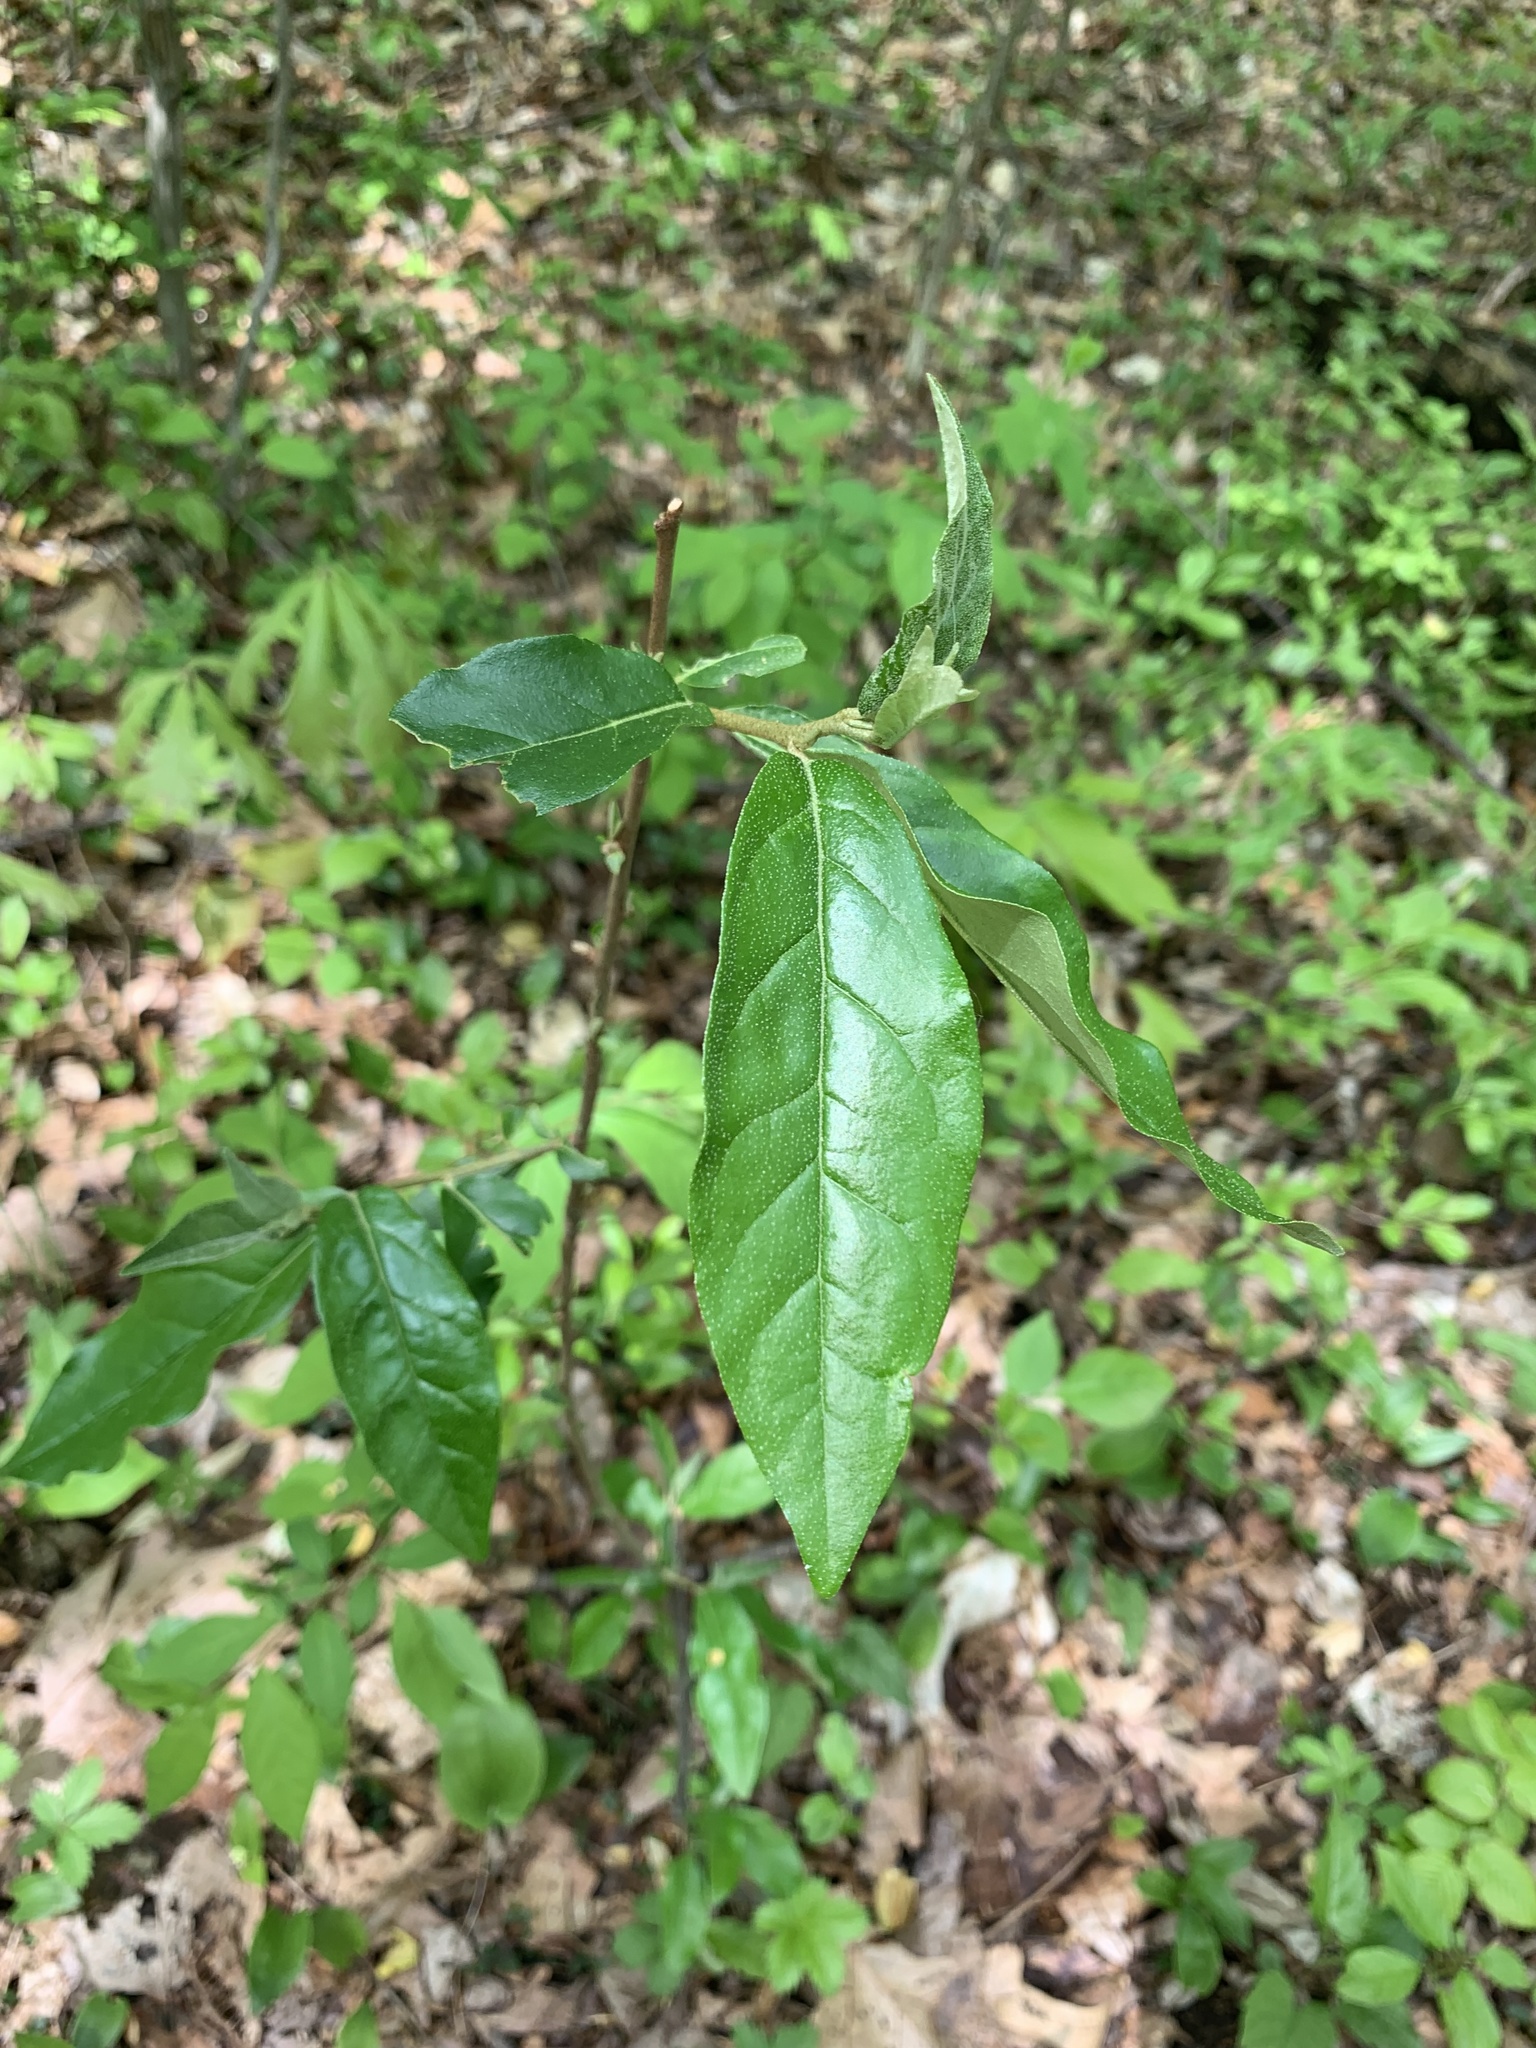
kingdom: Plantae
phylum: Tracheophyta
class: Magnoliopsida
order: Rosales
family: Elaeagnaceae
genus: Elaeagnus
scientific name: Elaeagnus umbellata
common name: Autumn olive
